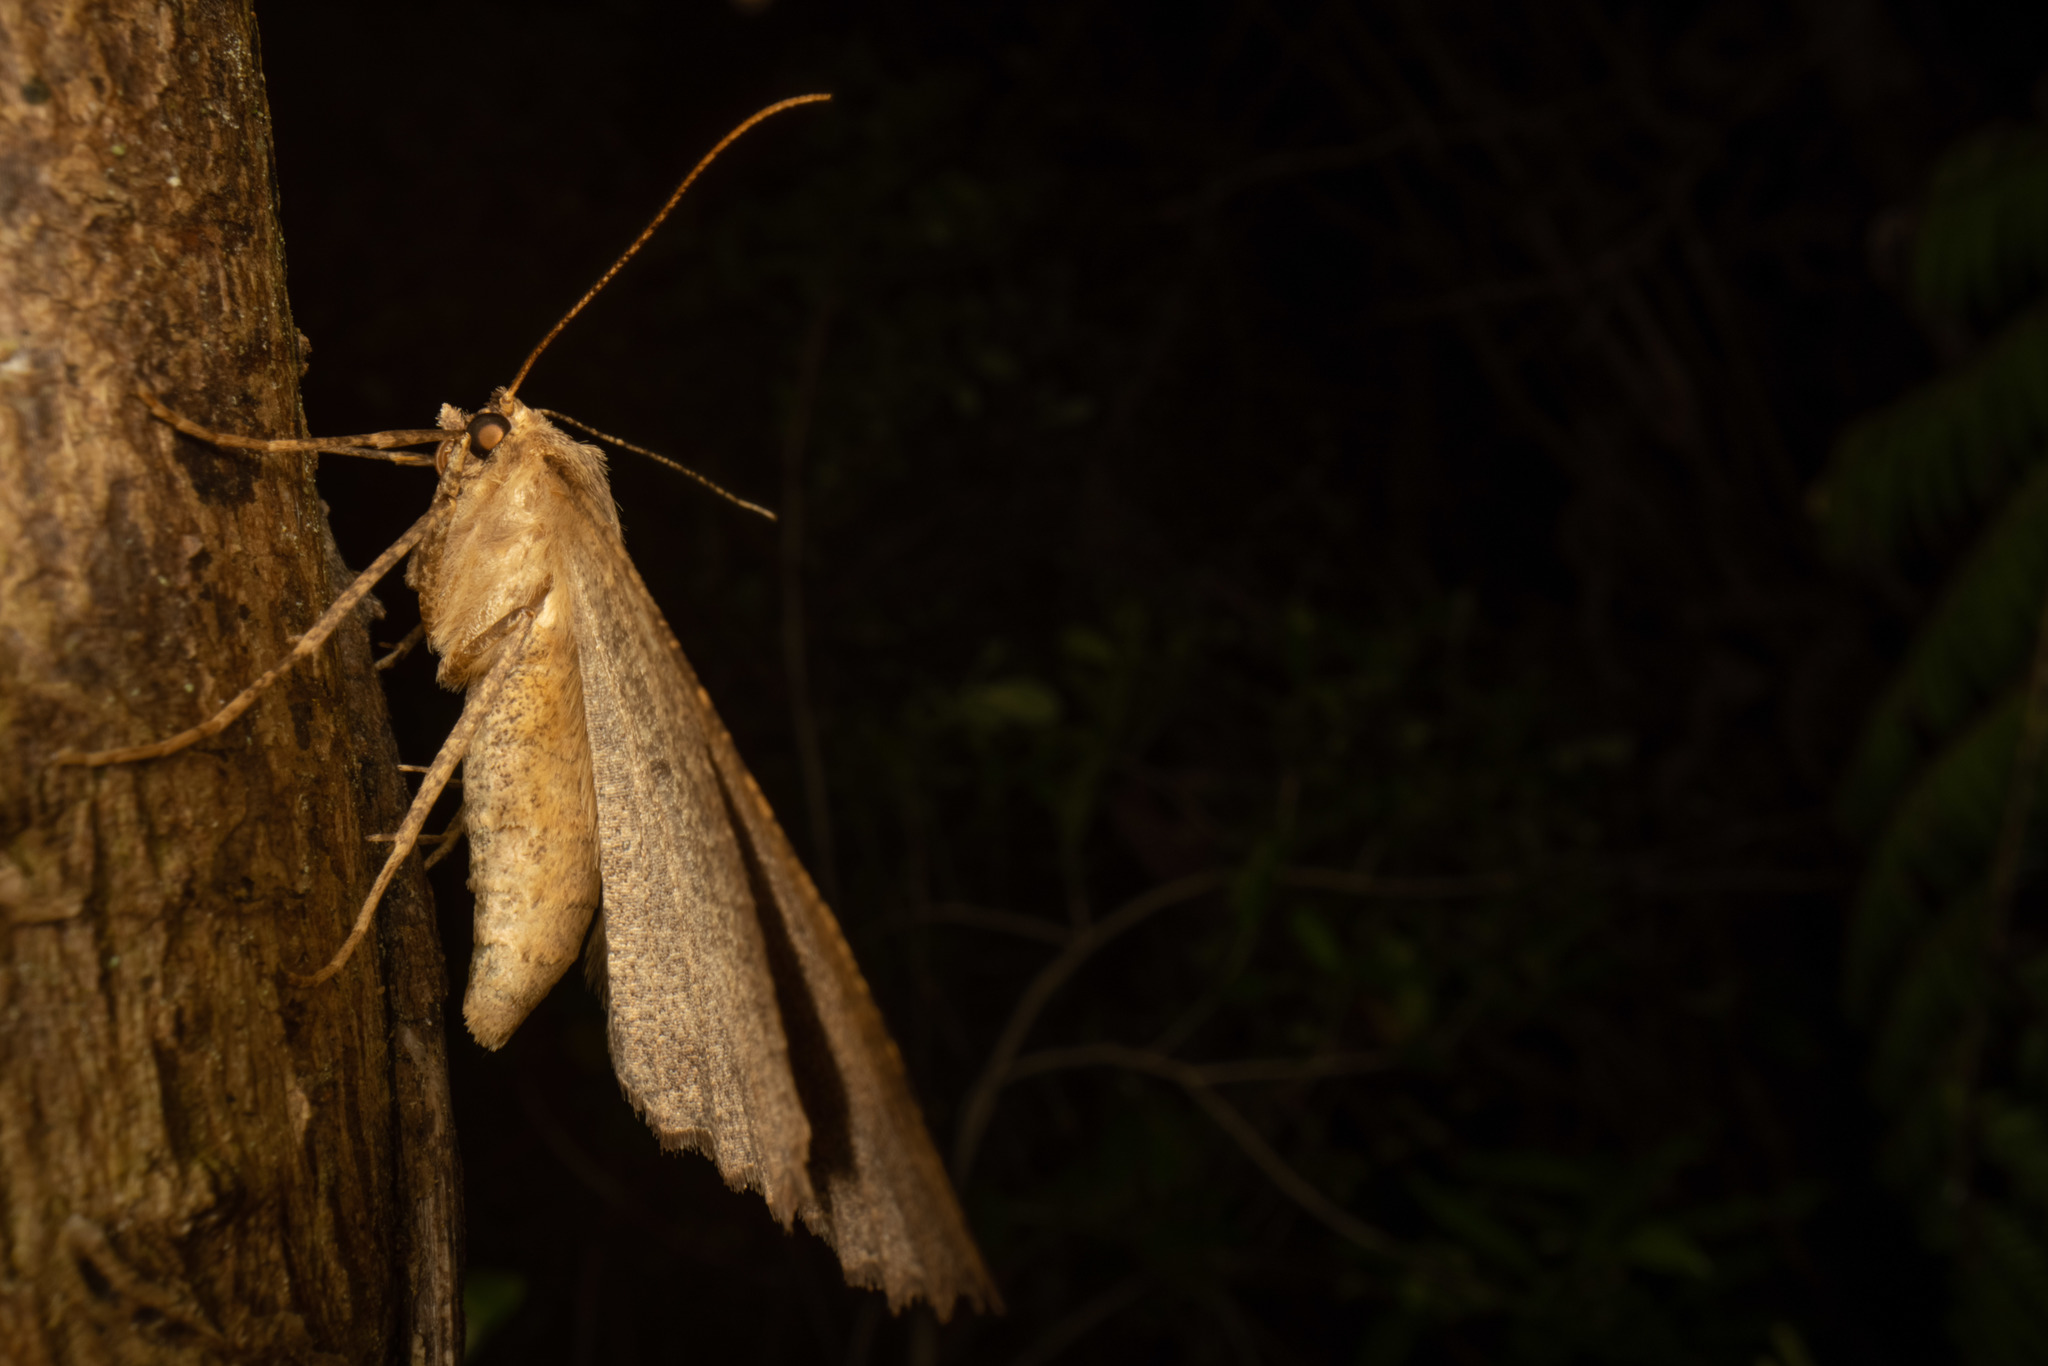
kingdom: Animalia
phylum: Arthropoda
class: Insecta
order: Lepidoptera
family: Geometridae
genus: Cleora
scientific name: Cleora scriptaria
